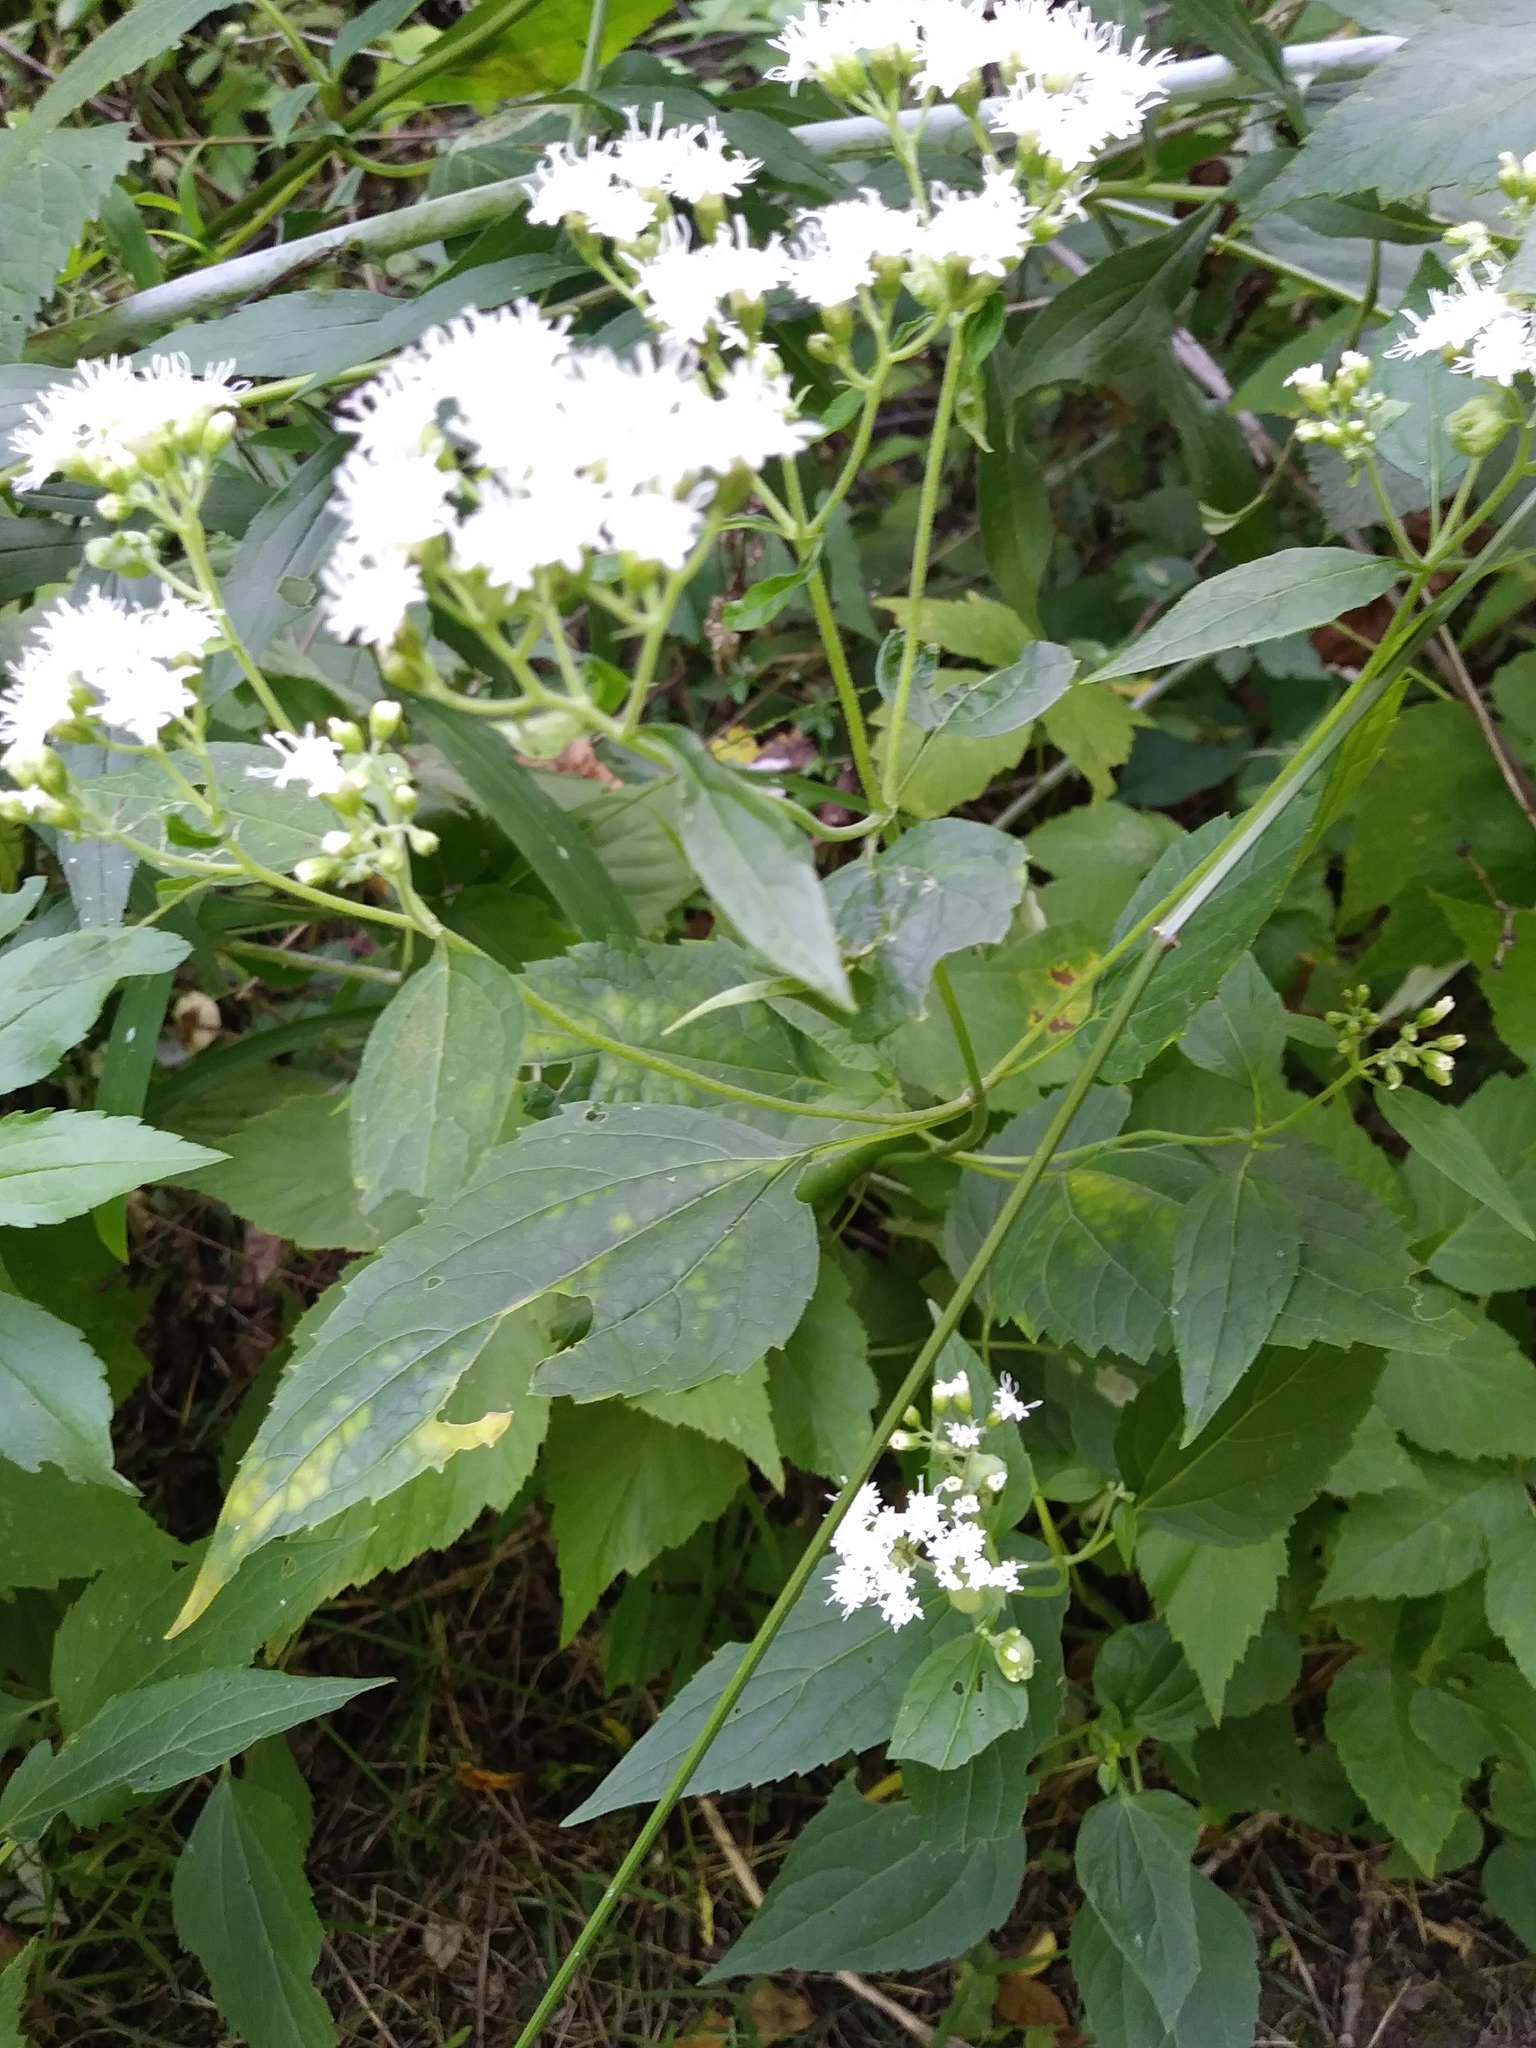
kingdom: Plantae
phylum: Tracheophyta
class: Magnoliopsida
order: Asterales
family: Asteraceae
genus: Ageratina
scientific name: Ageratina altissima
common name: White snakeroot
